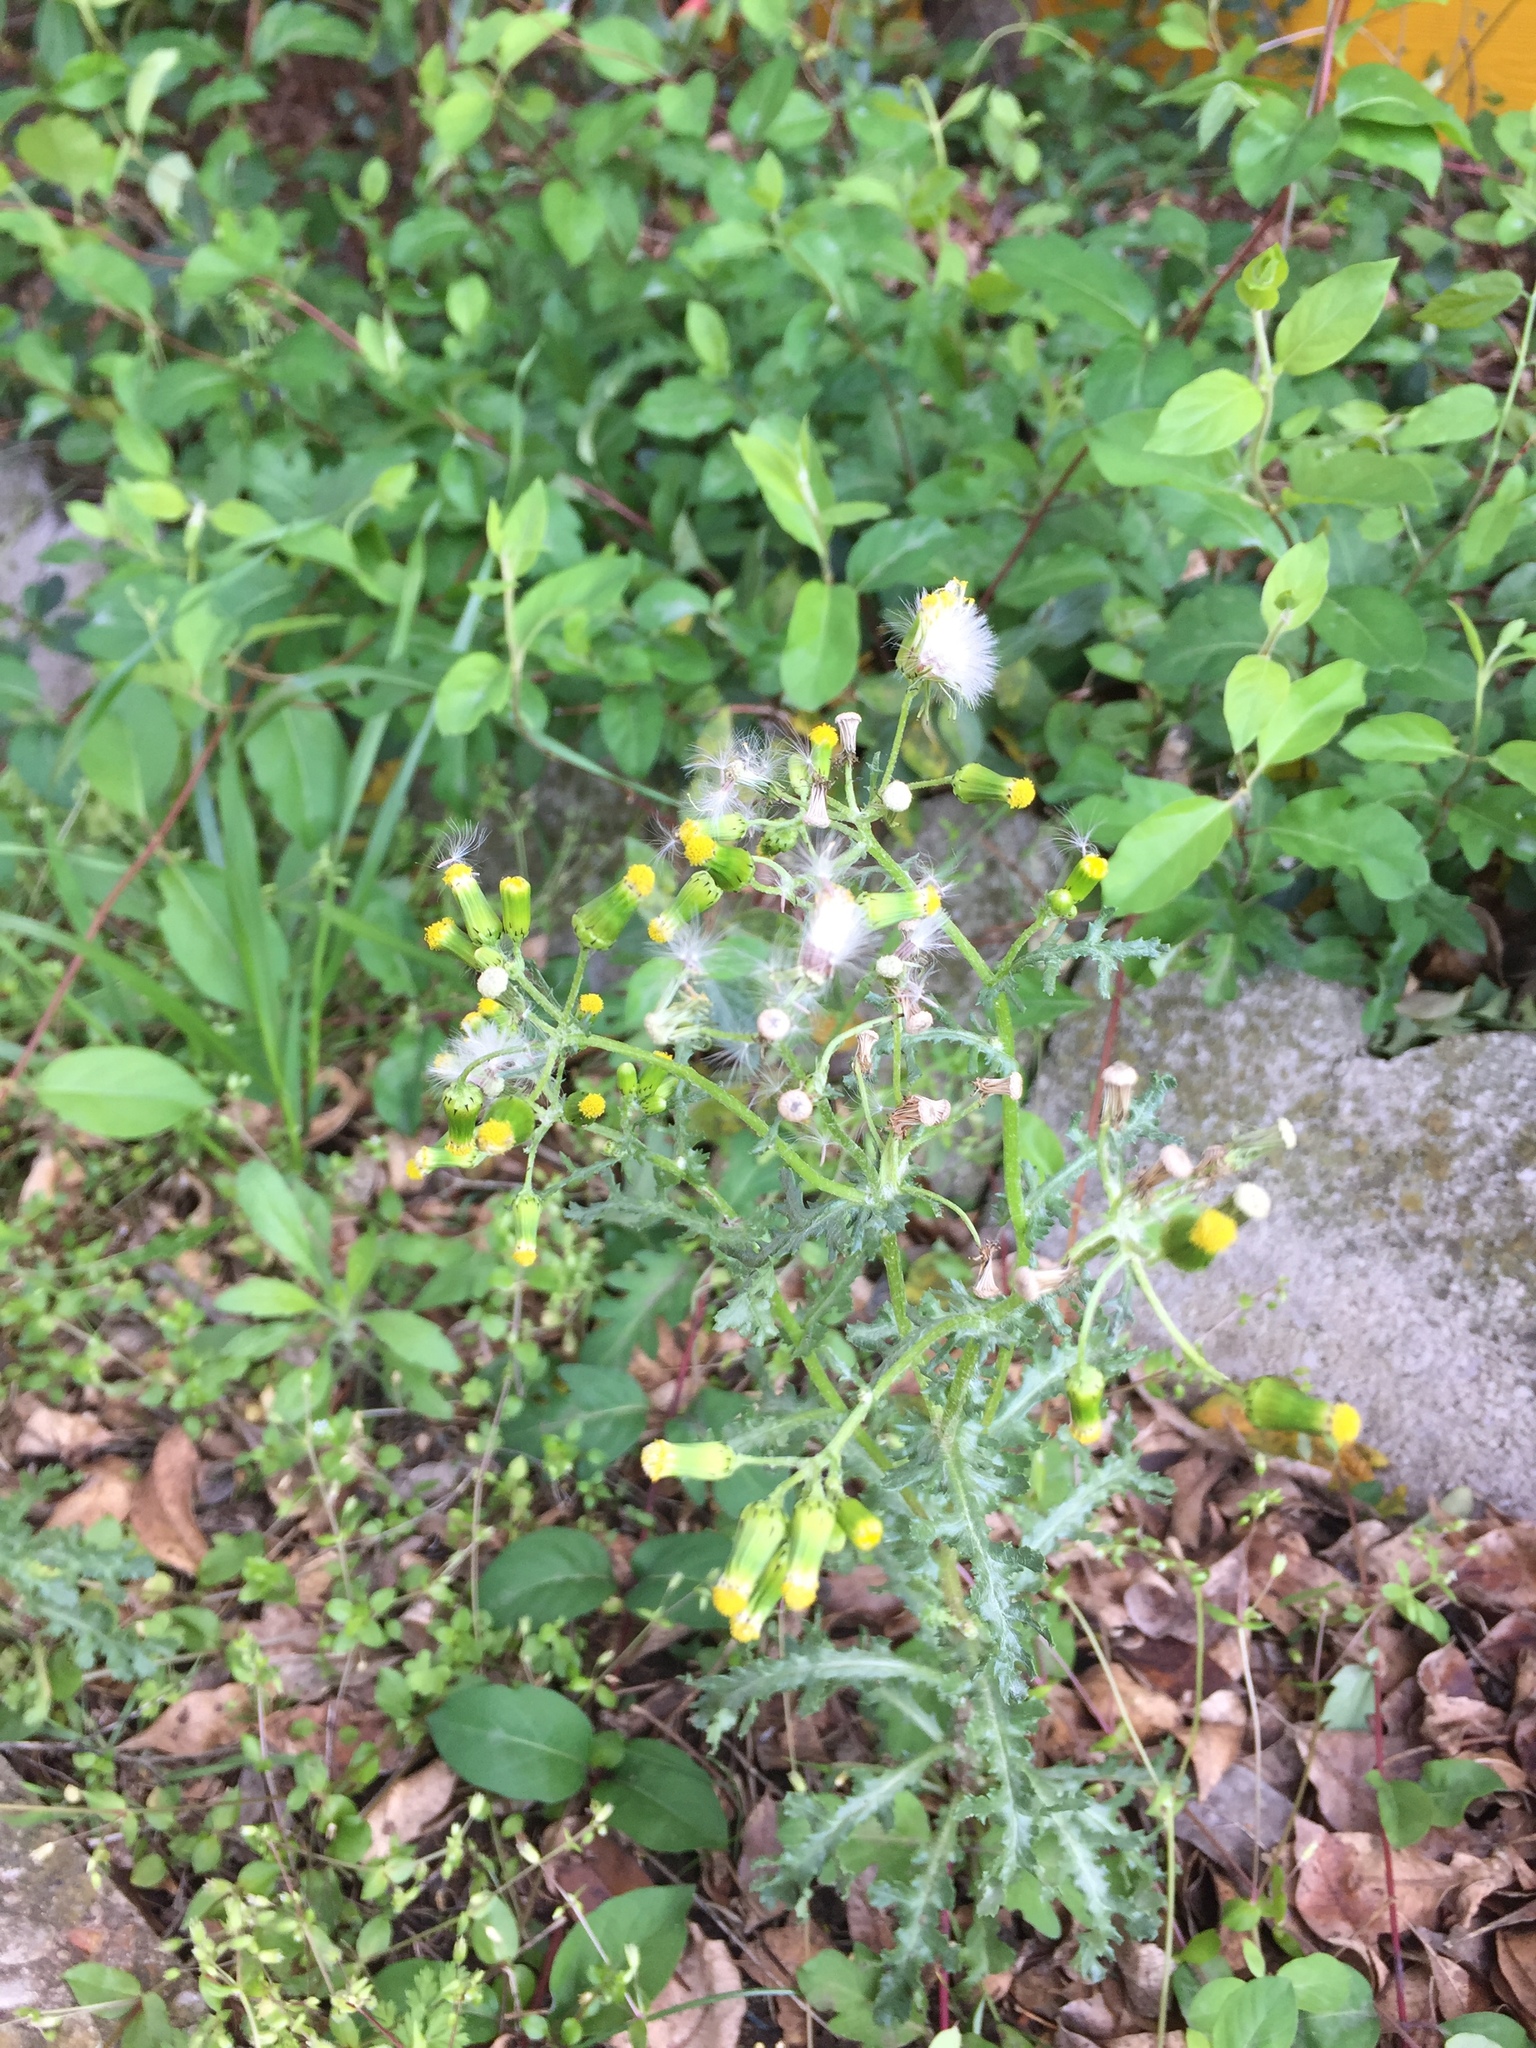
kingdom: Plantae
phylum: Tracheophyta
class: Magnoliopsida
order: Asterales
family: Asteraceae
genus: Senecio
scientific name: Senecio vulgaris
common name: Old-man-in-the-spring
